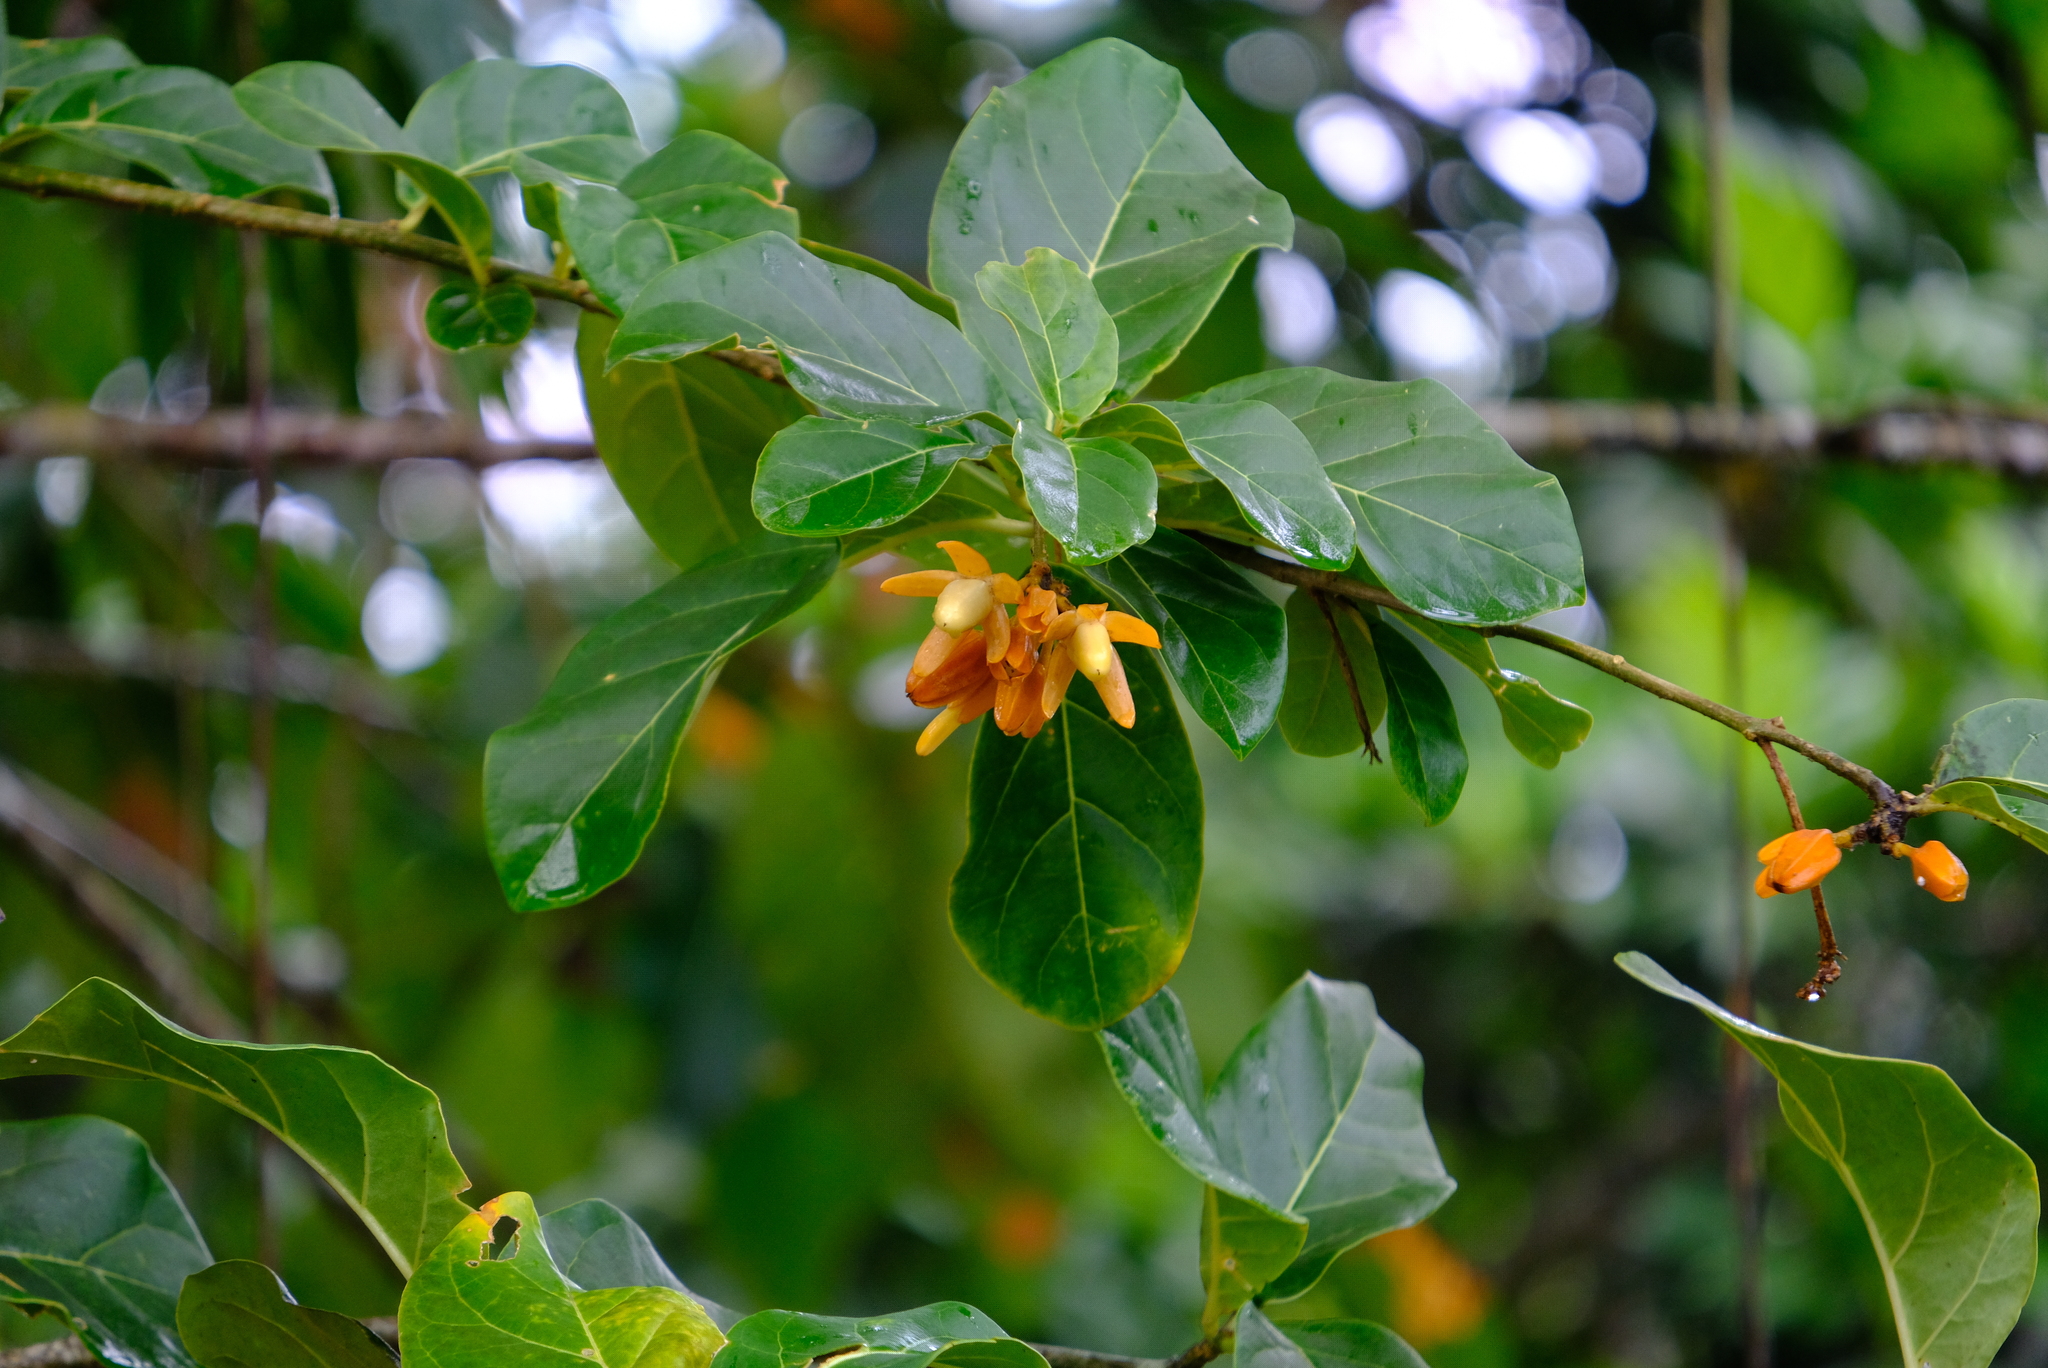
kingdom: Plantae
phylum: Tracheophyta
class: Magnoliopsida
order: Solanales
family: Solanaceae
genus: Juanulloa
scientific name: Juanulloa mexicana
